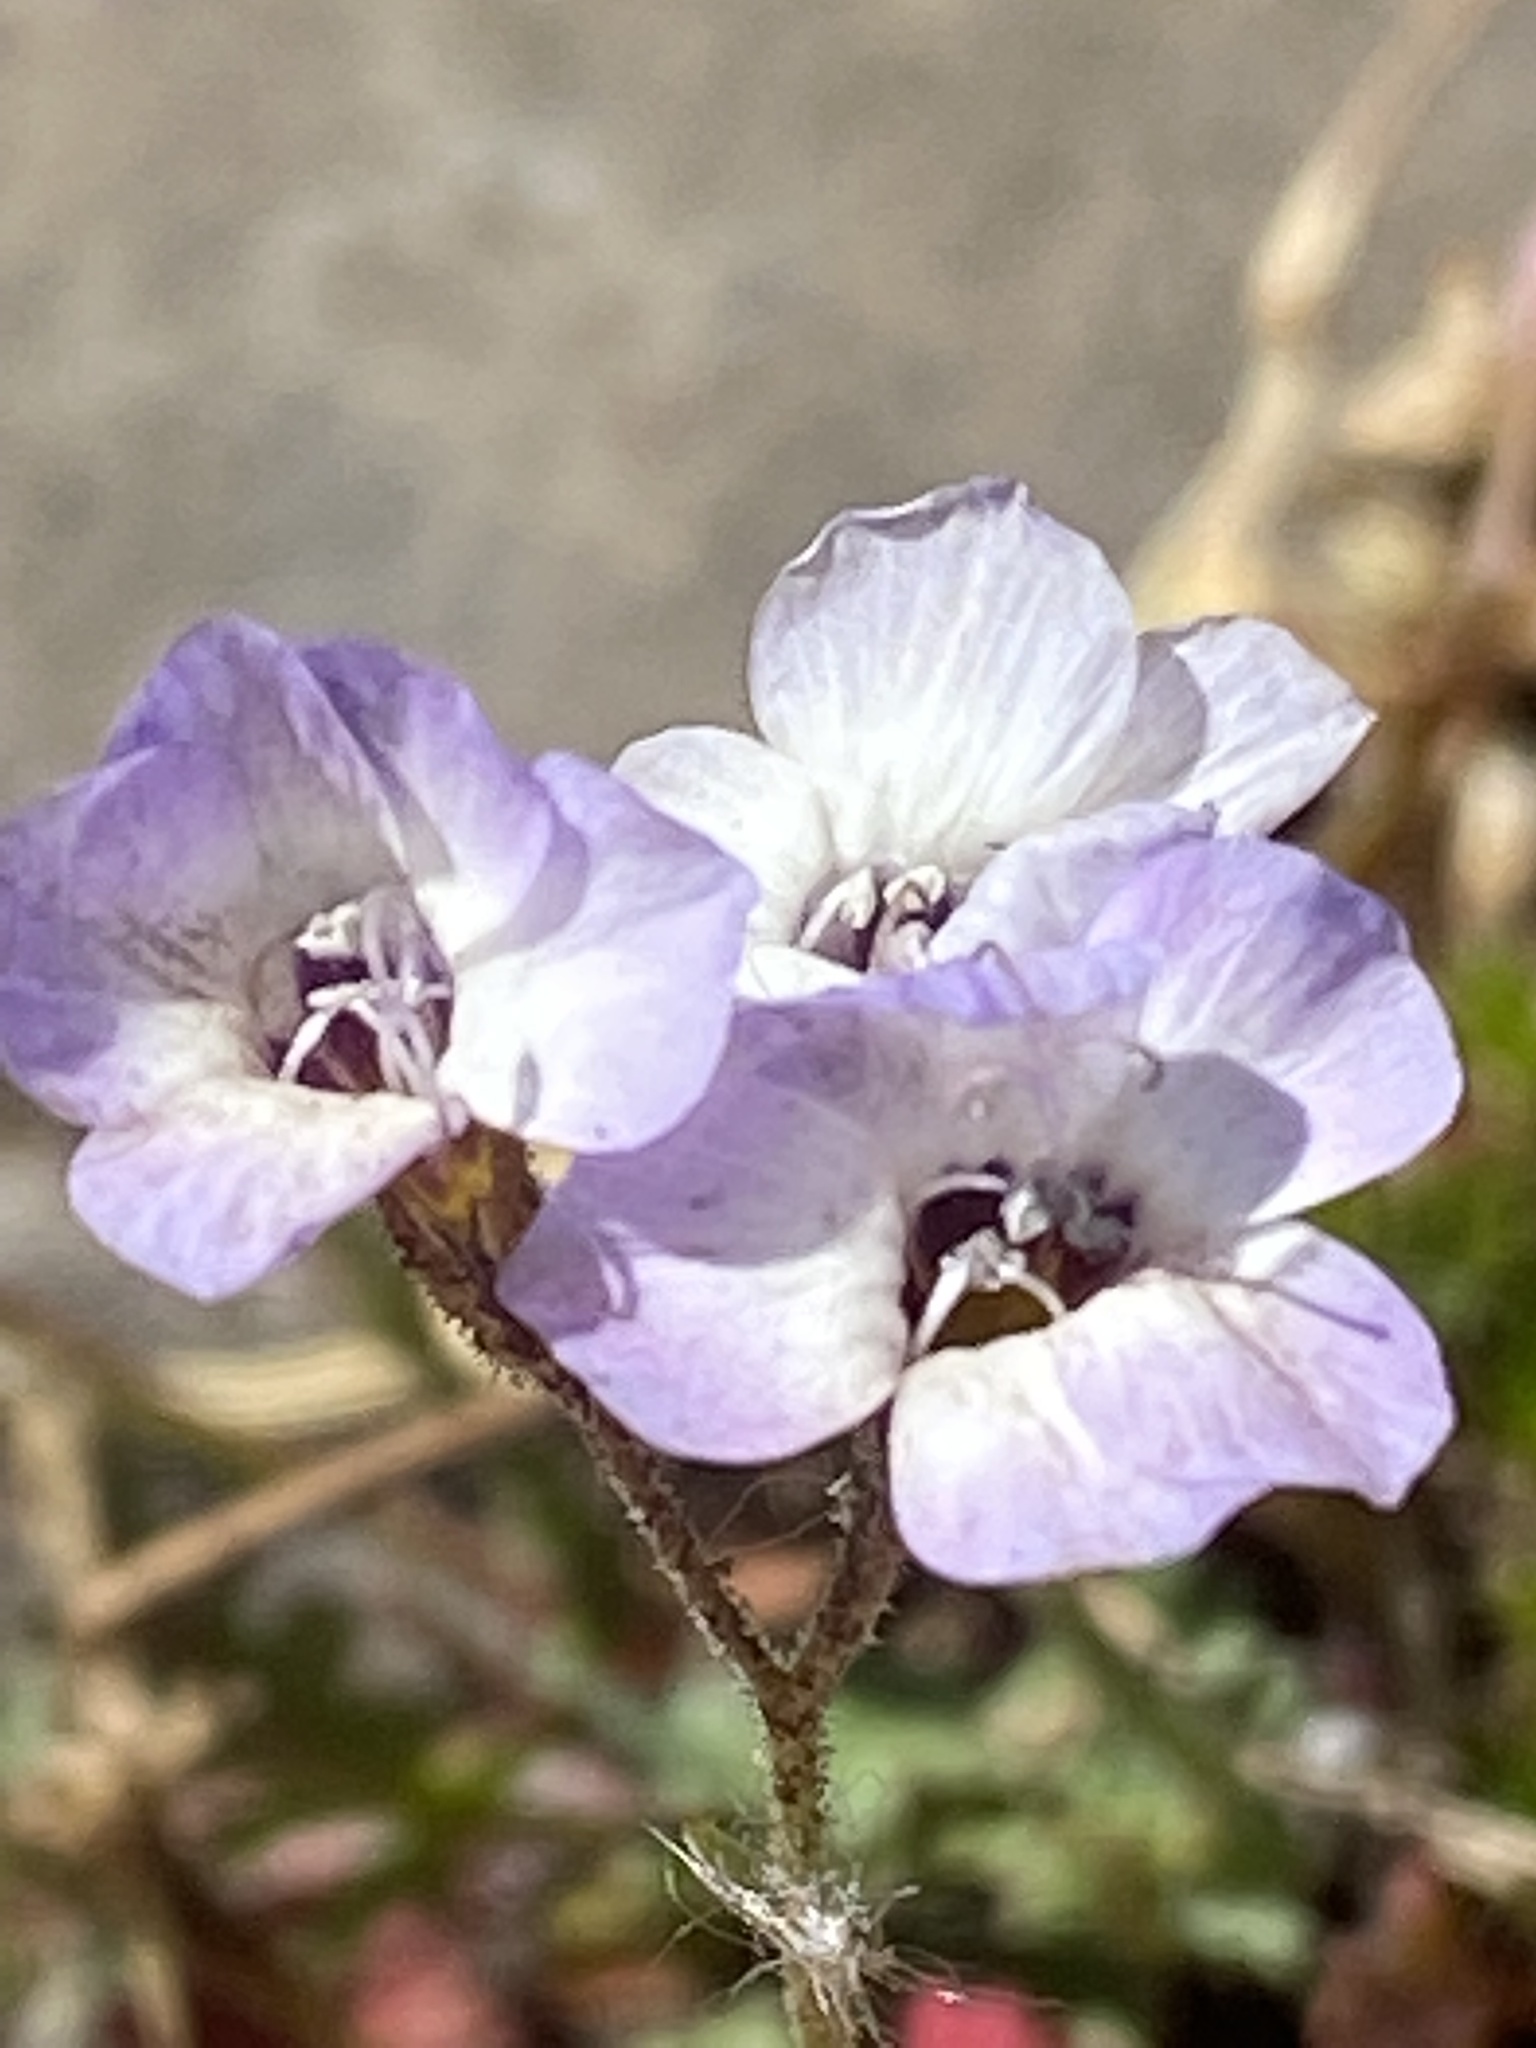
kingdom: Plantae
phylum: Tracheophyta
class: Magnoliopsida
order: Ericales
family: Polemoniaceae
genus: Gilia
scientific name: Gilia tricolor
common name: Bird's-eyes
